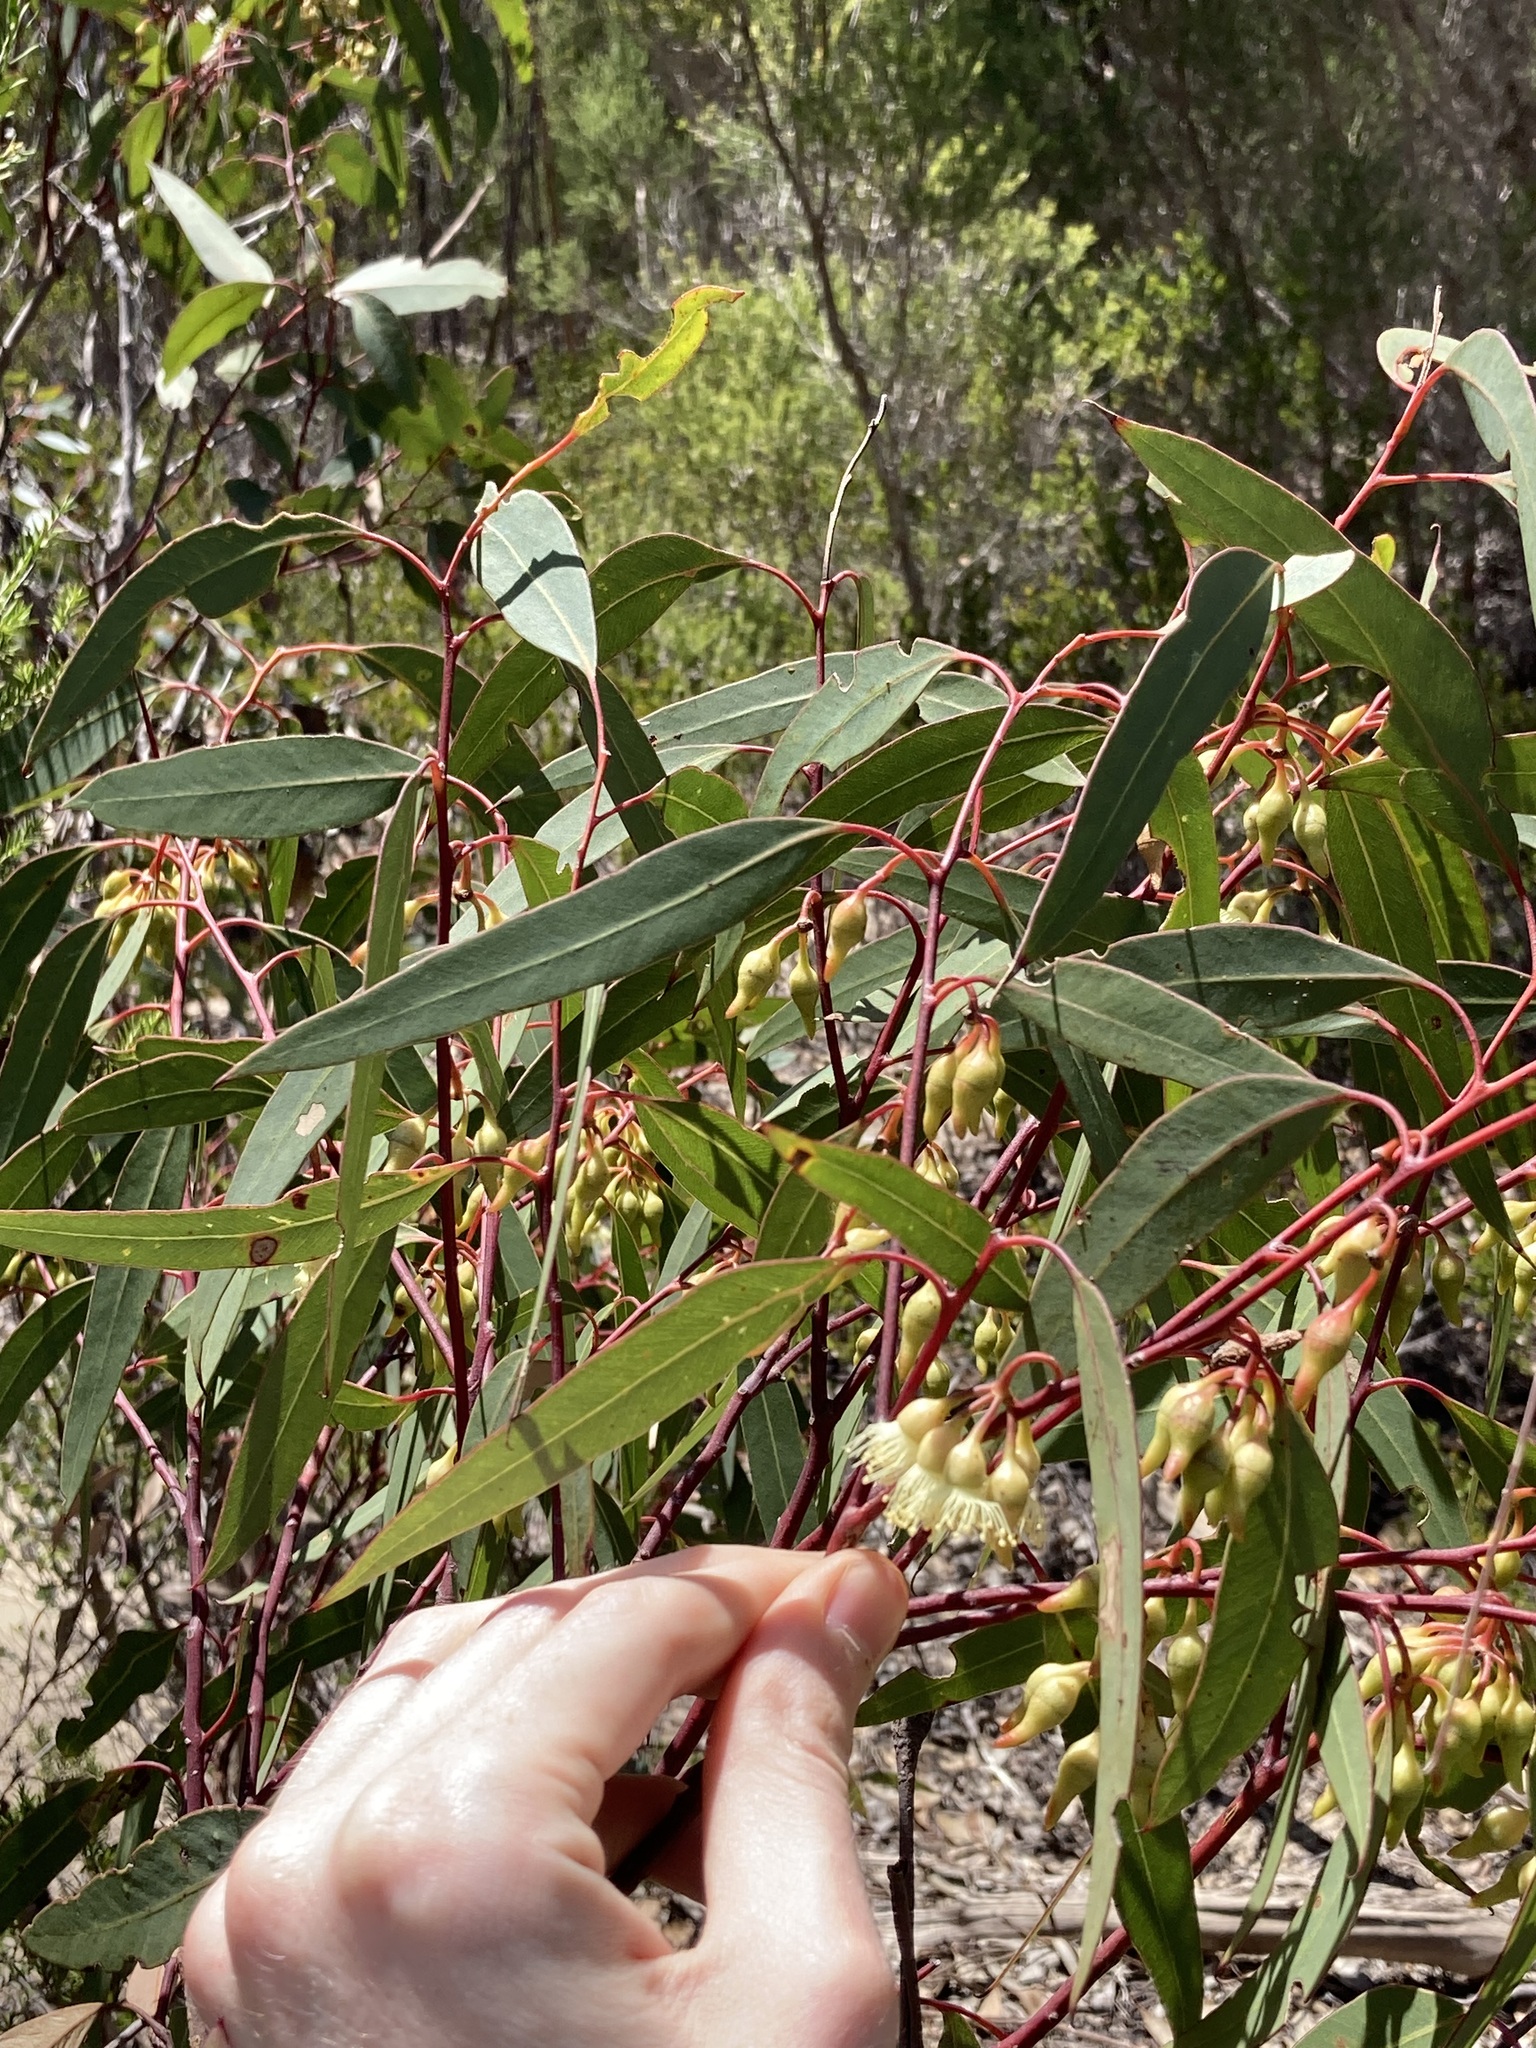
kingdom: Plantae
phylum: Tracheophyta
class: Magnoliopsida
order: Myrtales
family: Myrtaceae
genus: Eucalyptus
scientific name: Eucalyptus ecostata
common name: Coastal silver mallee
